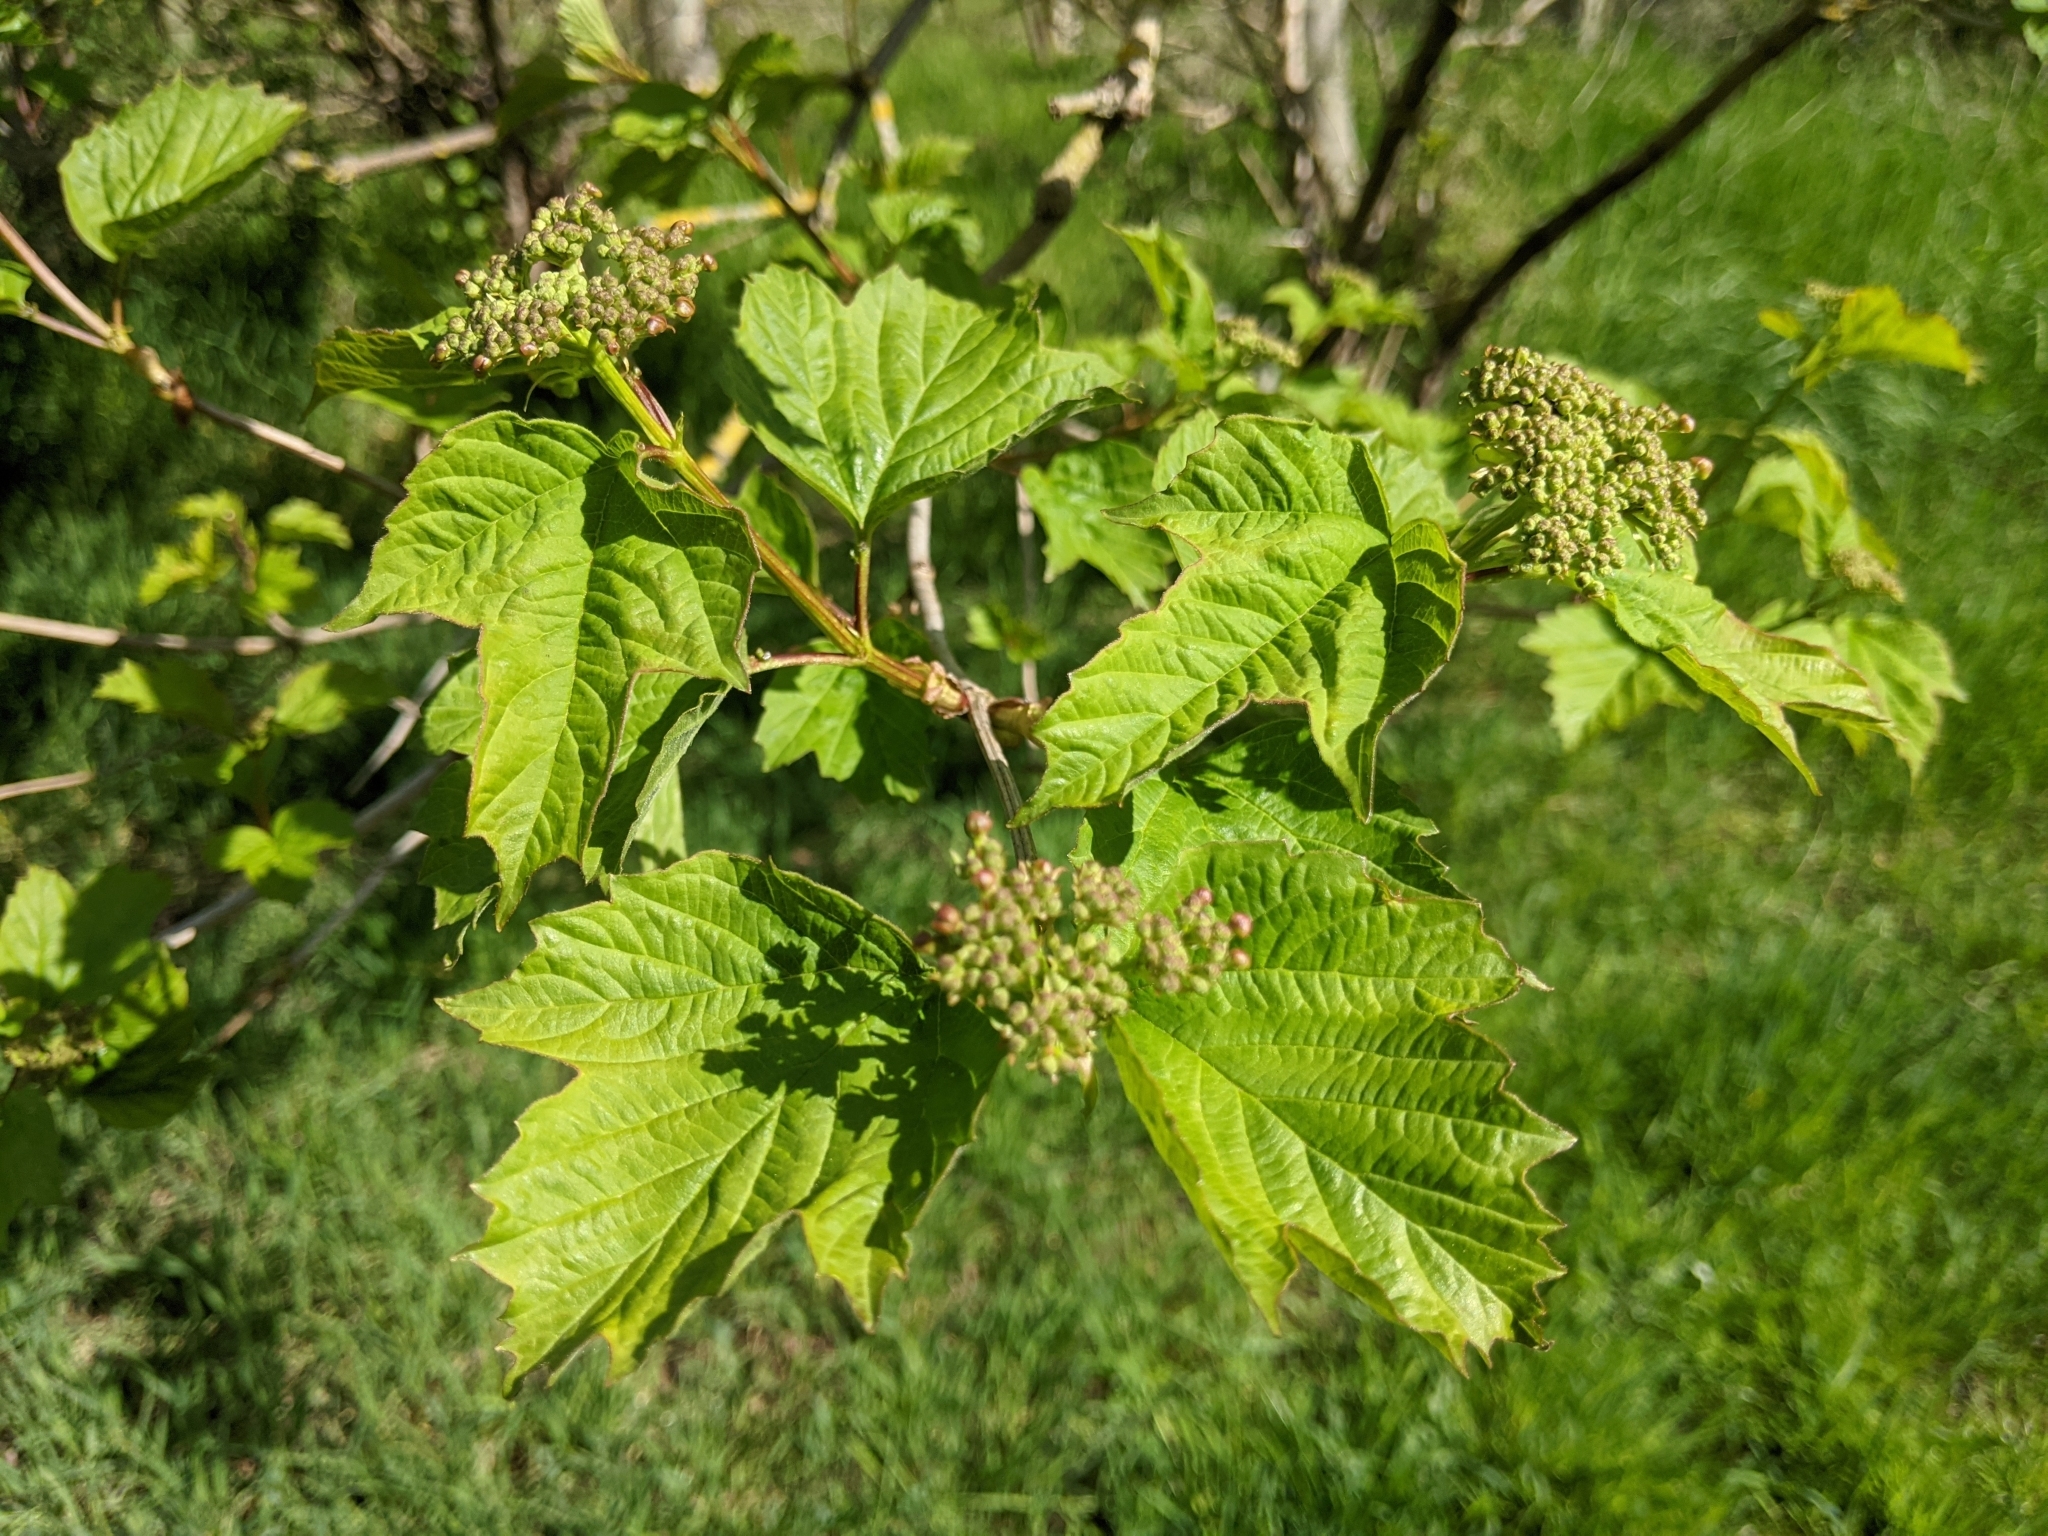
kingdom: Plantae
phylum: Tracheophyta
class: Magnoliopsida
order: Dipsacales
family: Viburnaceae
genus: Viburnum
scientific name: Viburnum opulus
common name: Guelder-rose
